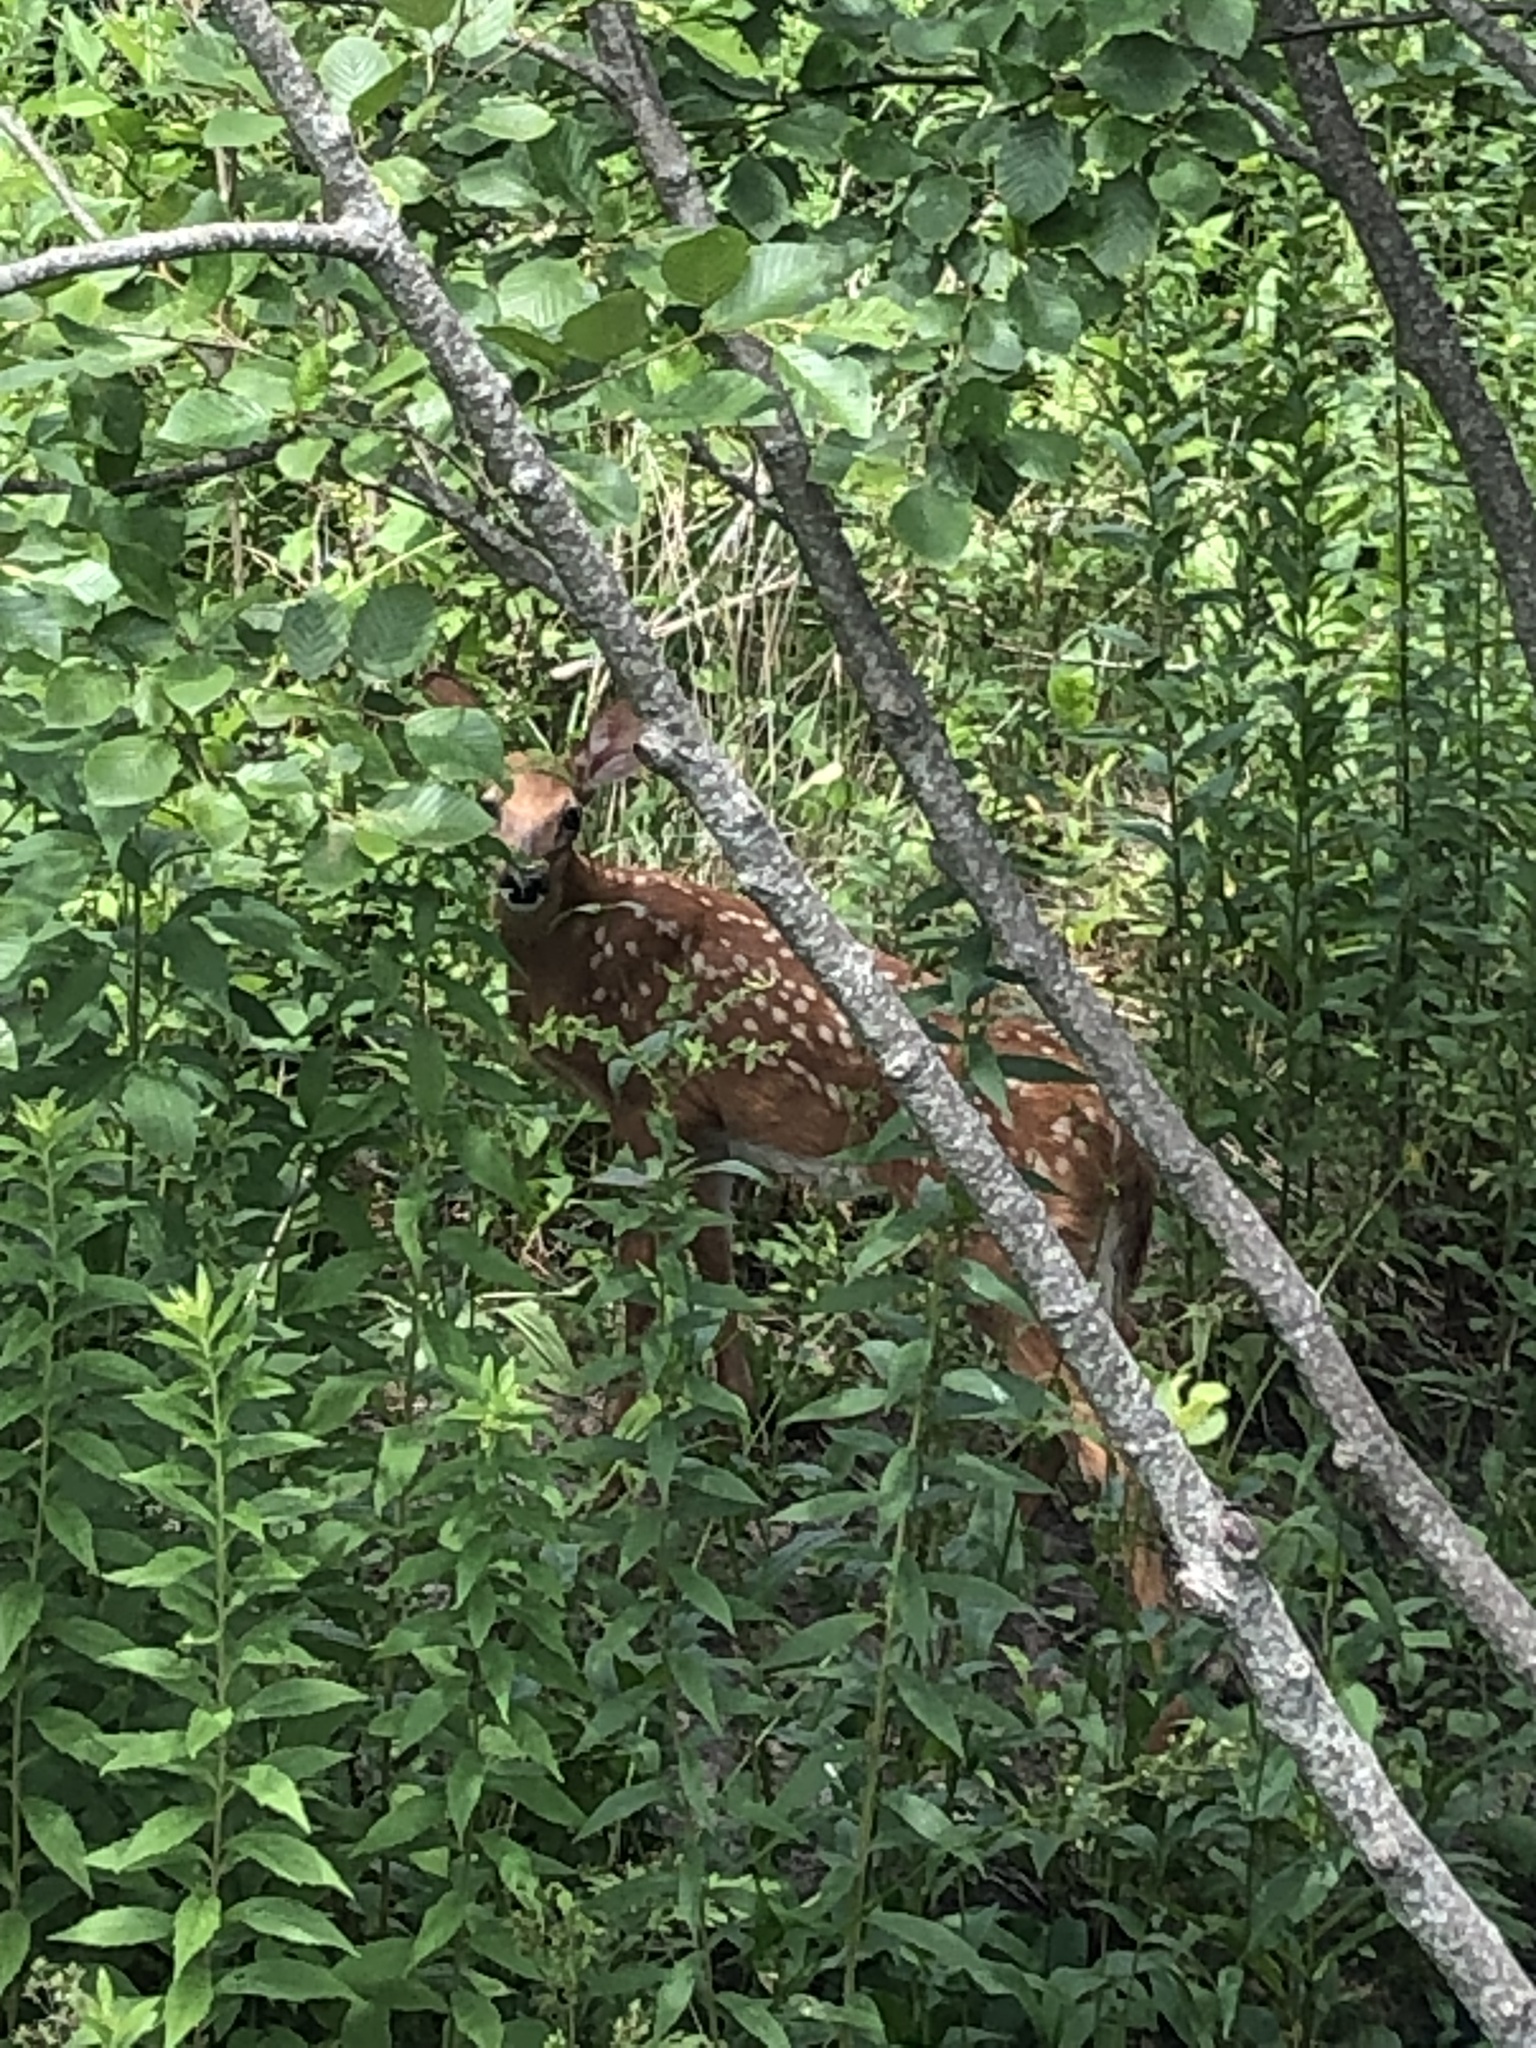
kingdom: Animalia
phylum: Chordata
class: Mammalia
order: Artiodactyla
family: Cervidae
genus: Odocoileus
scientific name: Odocoileus virginianus
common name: White-tailed deer
